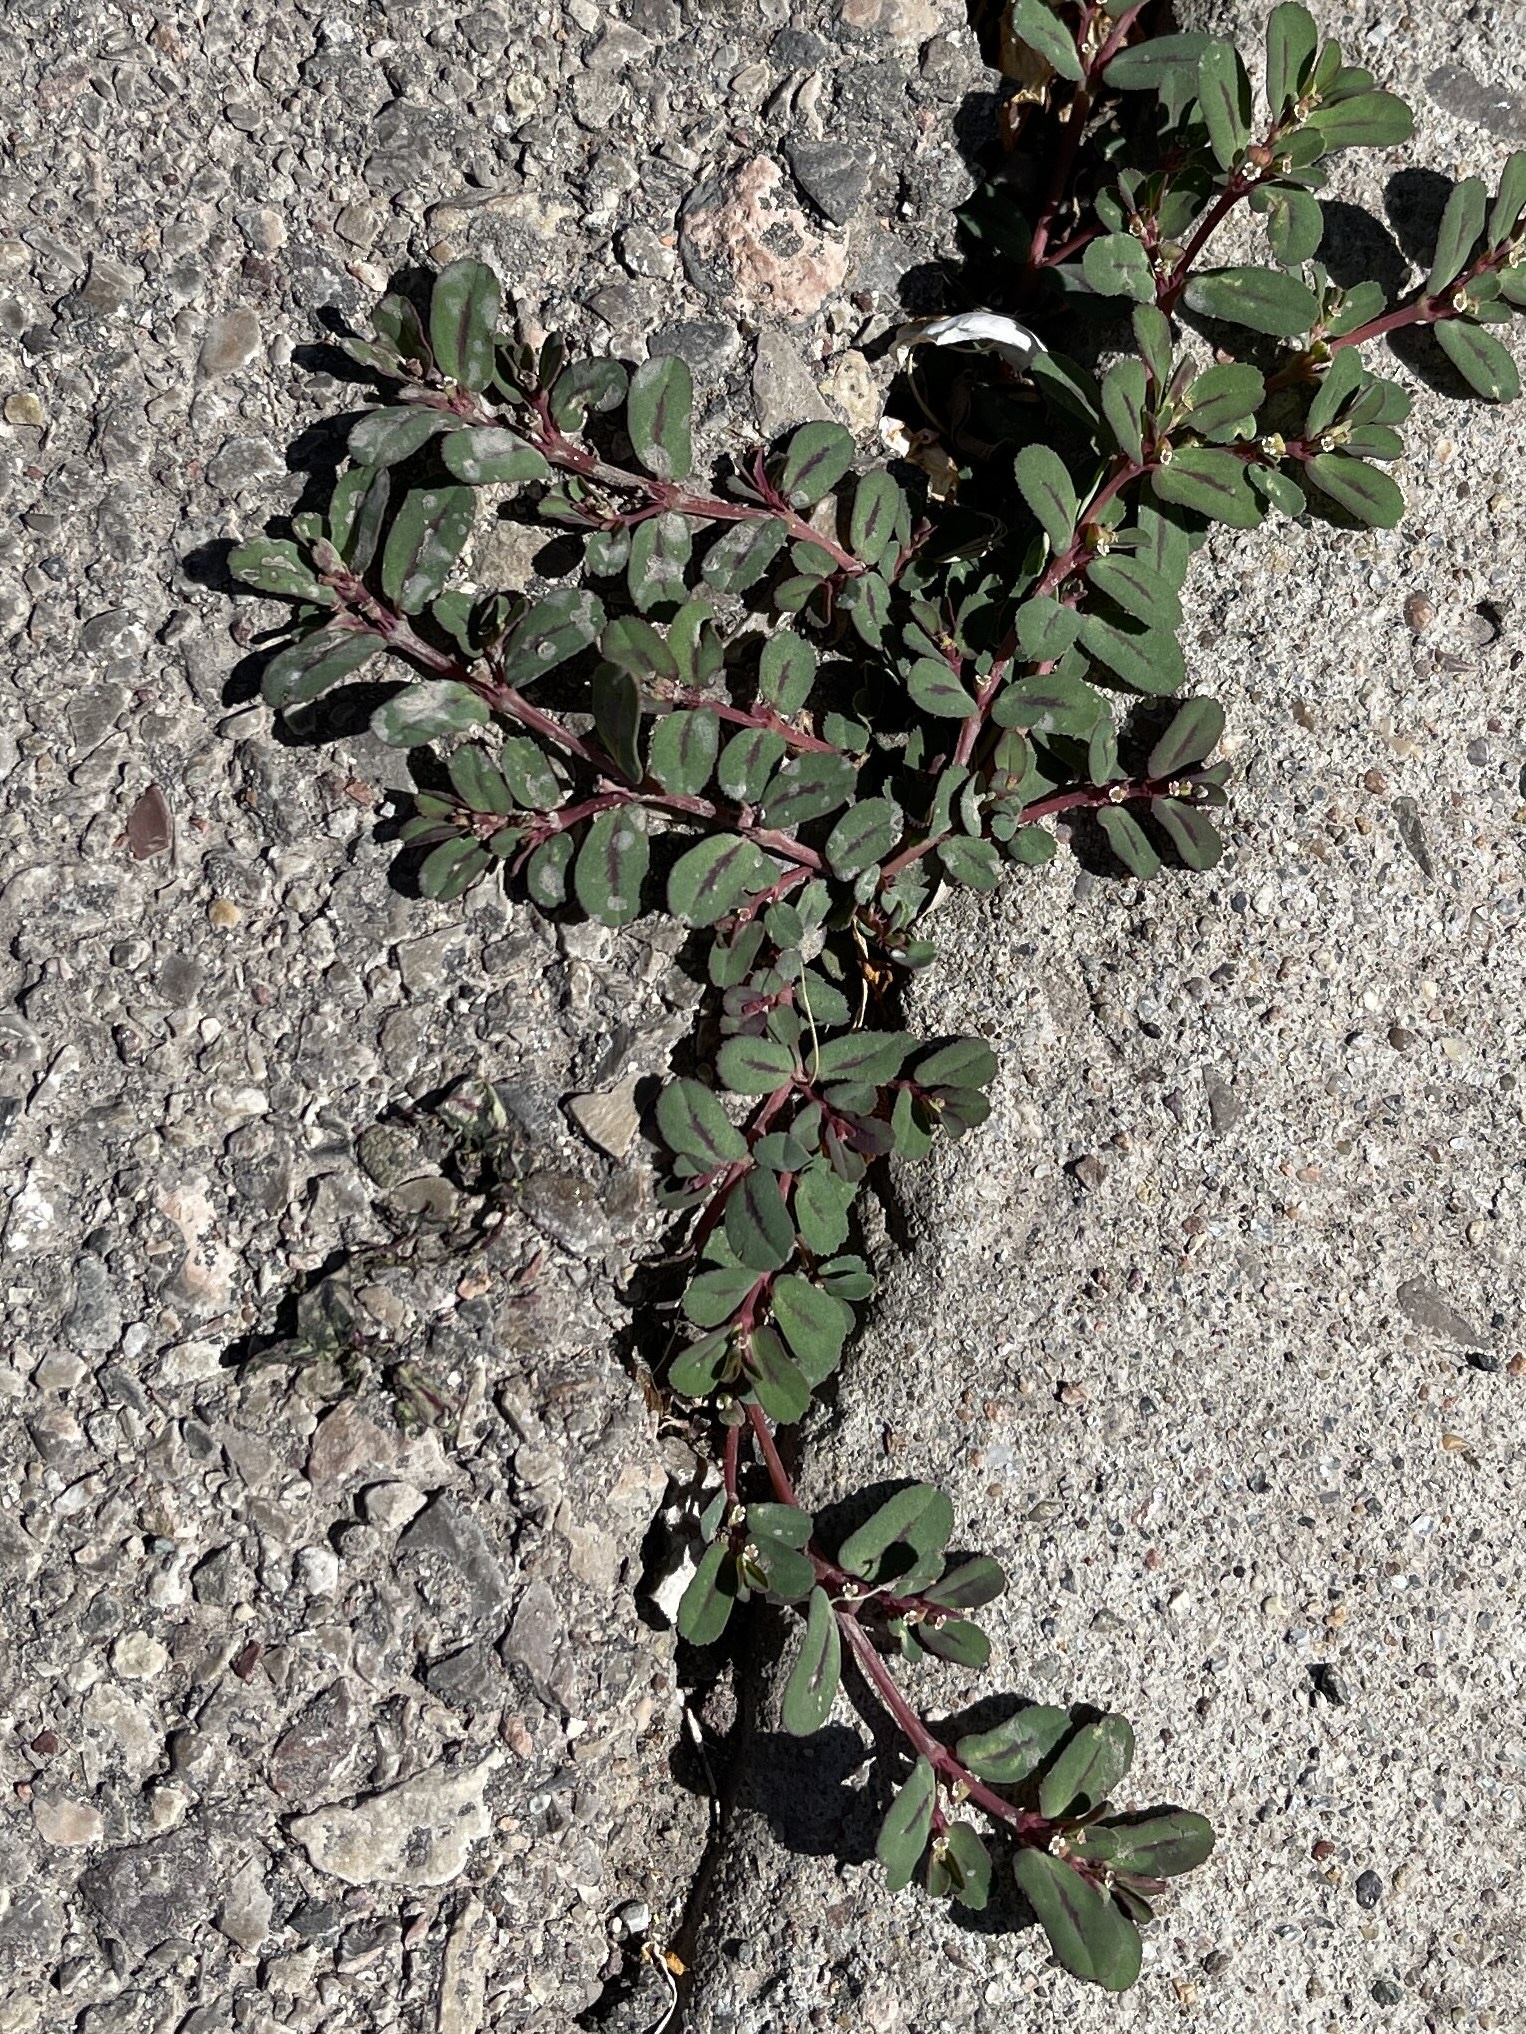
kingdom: Plantae
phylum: Tracheophyta
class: Magnoliopsida
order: Malpighiales
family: Euphorbiaceae
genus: Euphorbia
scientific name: Euphorbia serpillifolia
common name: Thyme-leaf spurge
